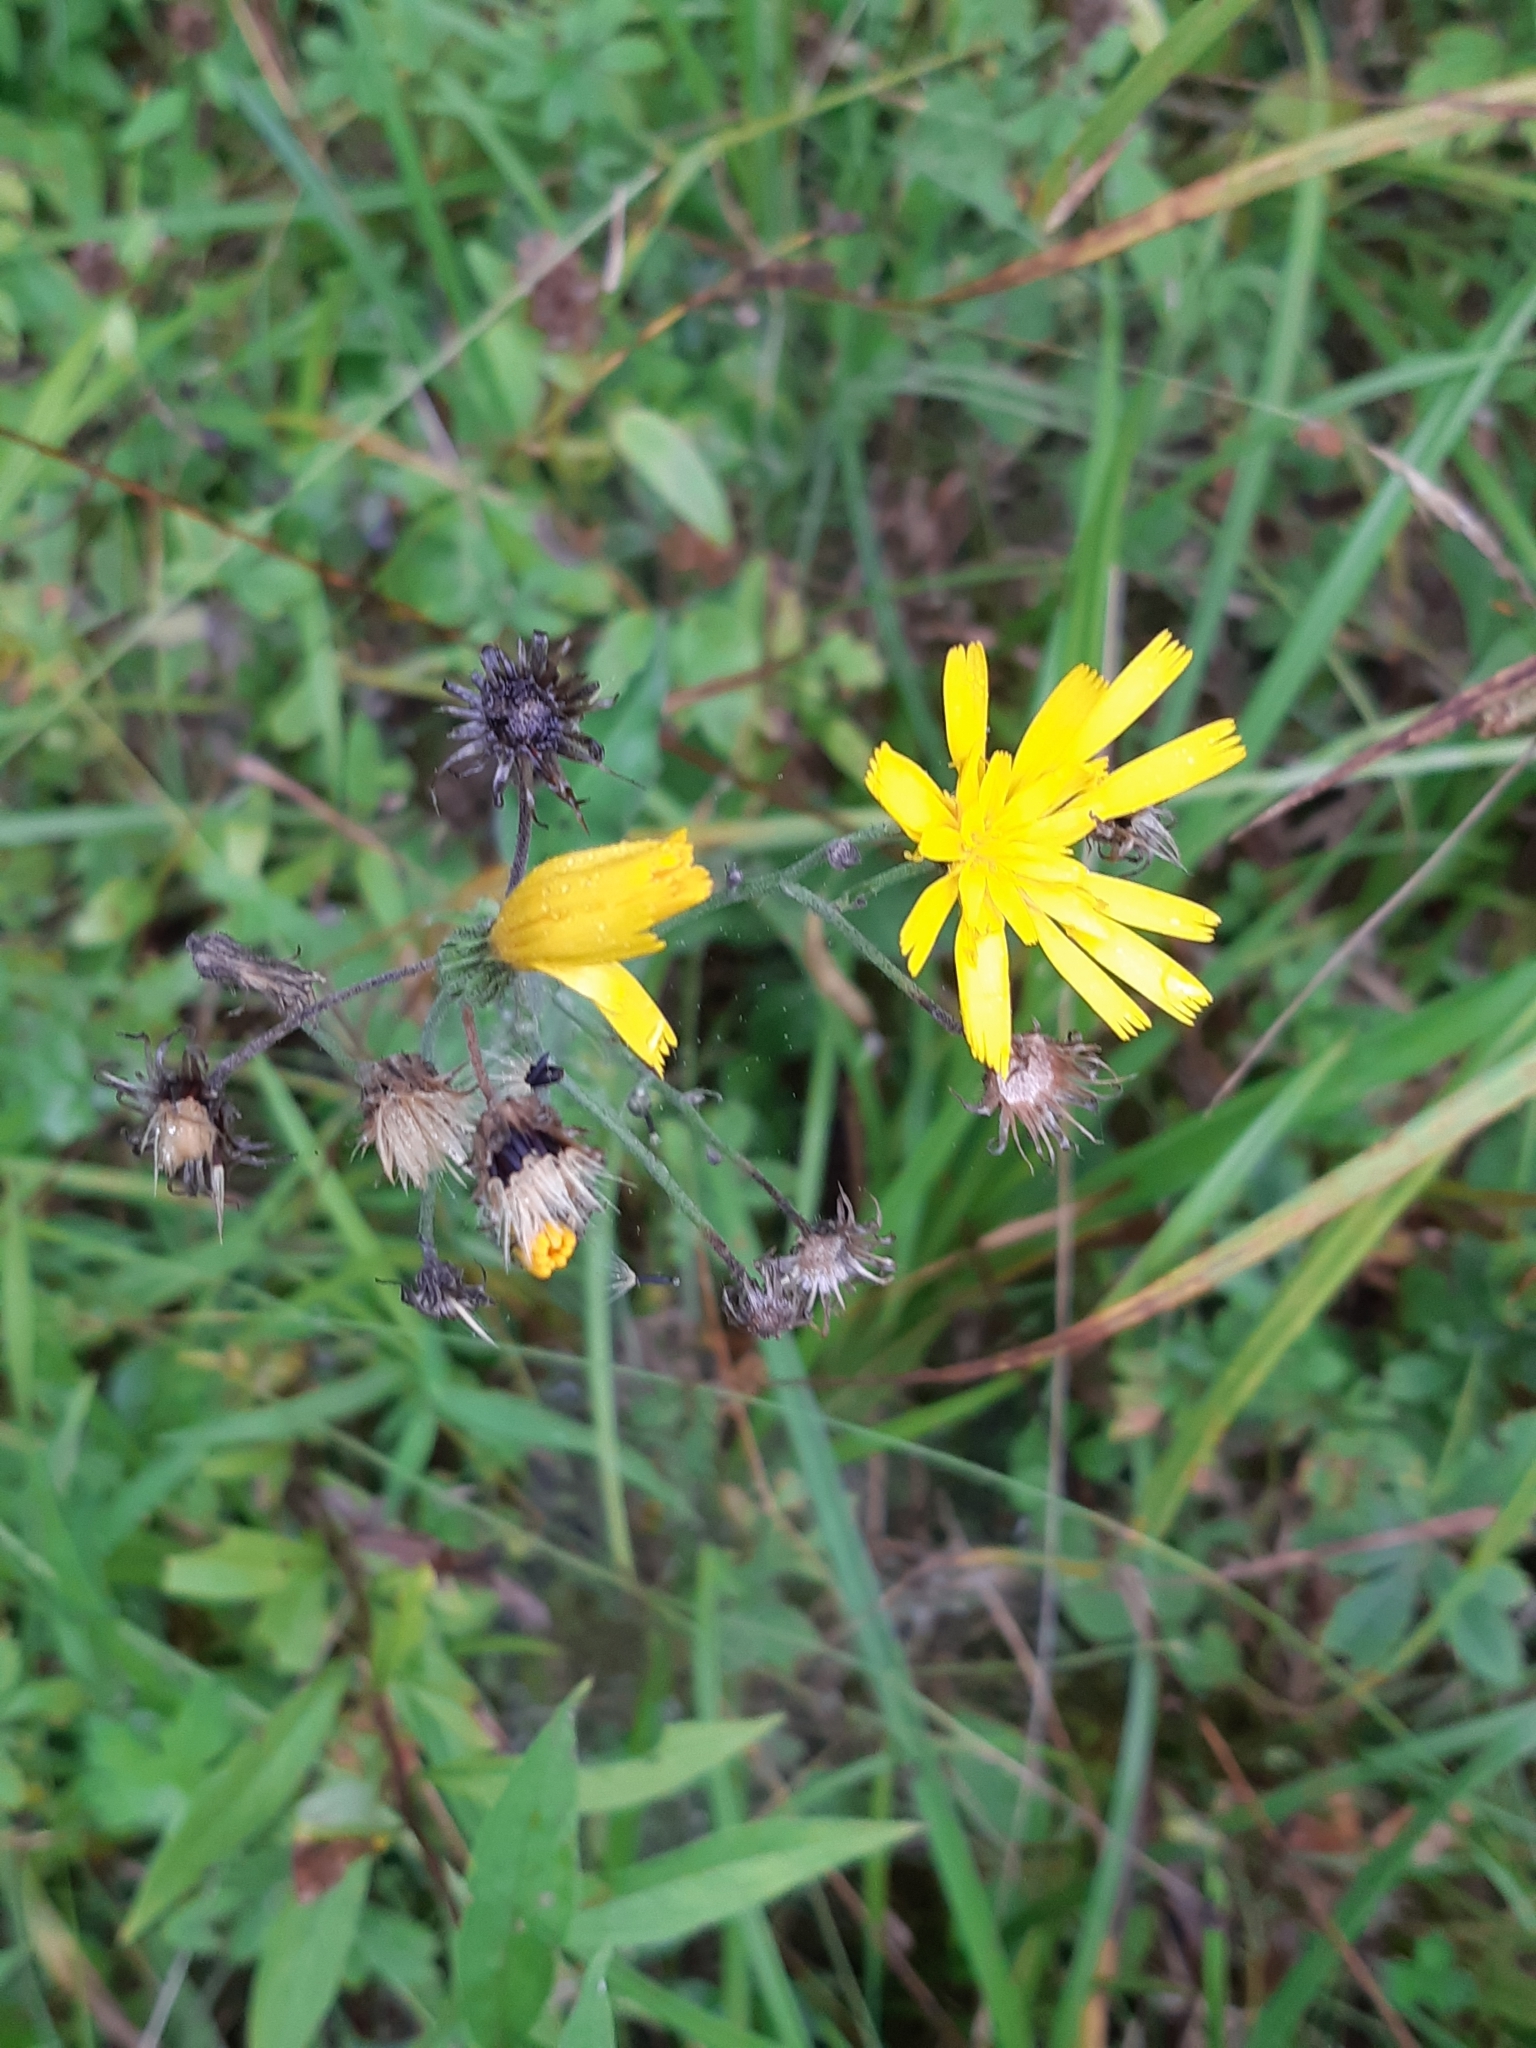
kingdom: Plantae
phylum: Tracheophyta
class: Magnoliopsida
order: Asterales
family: Asteraceae
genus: Hieracium
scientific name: Hieracium maculatum
